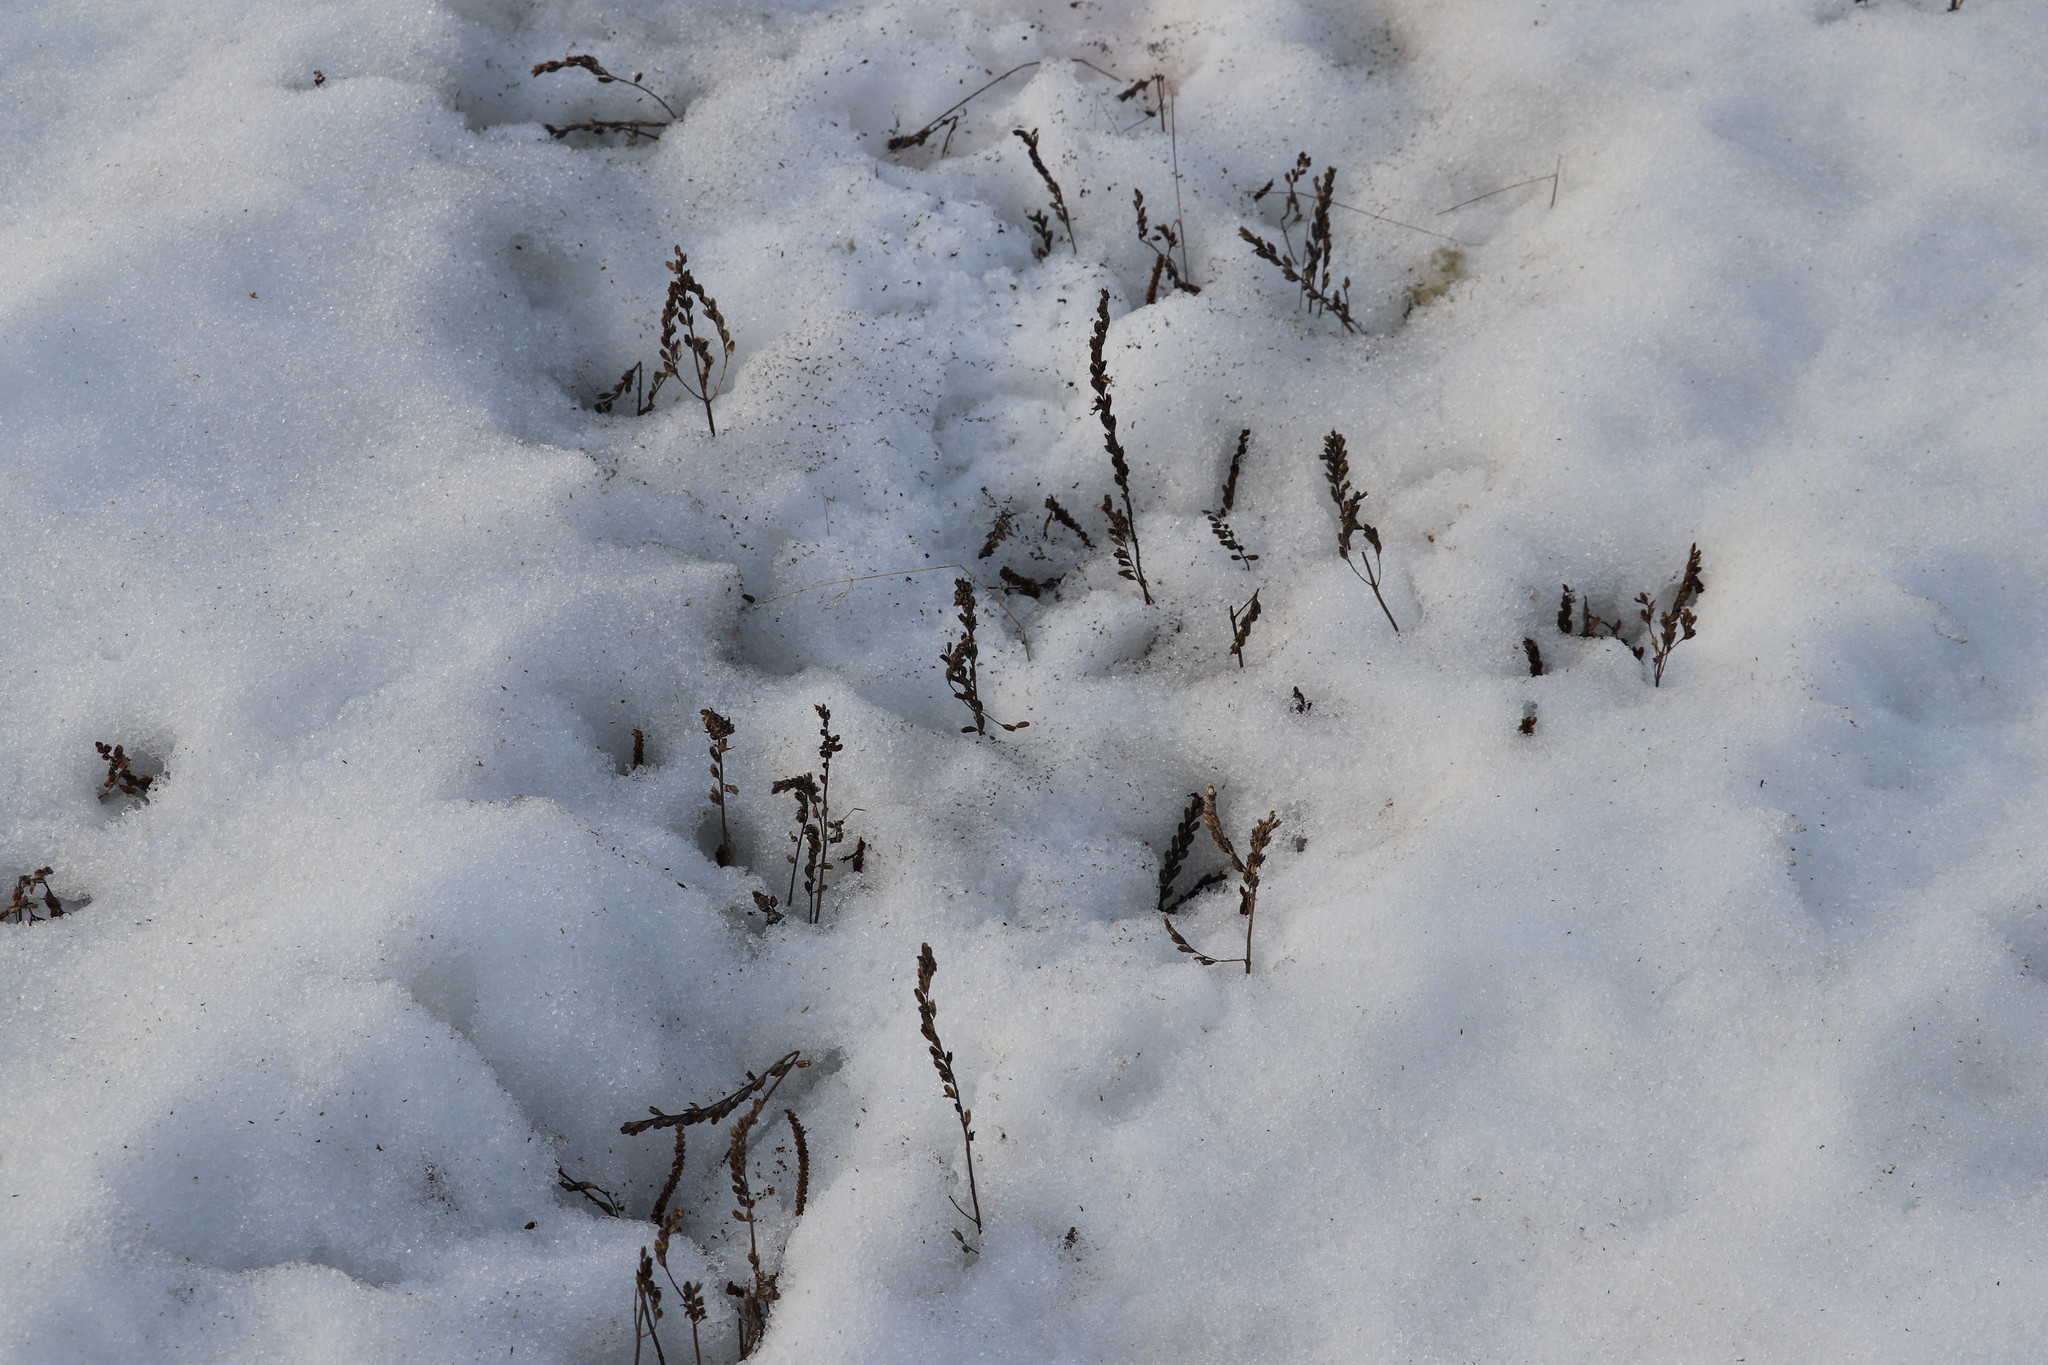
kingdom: Plantae
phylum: Tracheophyta
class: Magnoliopsida
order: Lamiales
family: Orobanchaceae
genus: Odontites
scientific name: Odontites vulgaris
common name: Broomrape
